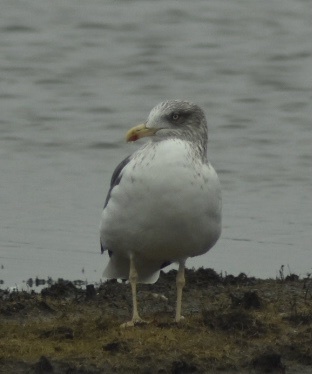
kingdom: Animalia
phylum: Chordata
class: Aves
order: Charadriiformes
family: Laridae
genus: Larus
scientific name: Larus fuscus
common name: Lesser black-backed gull
